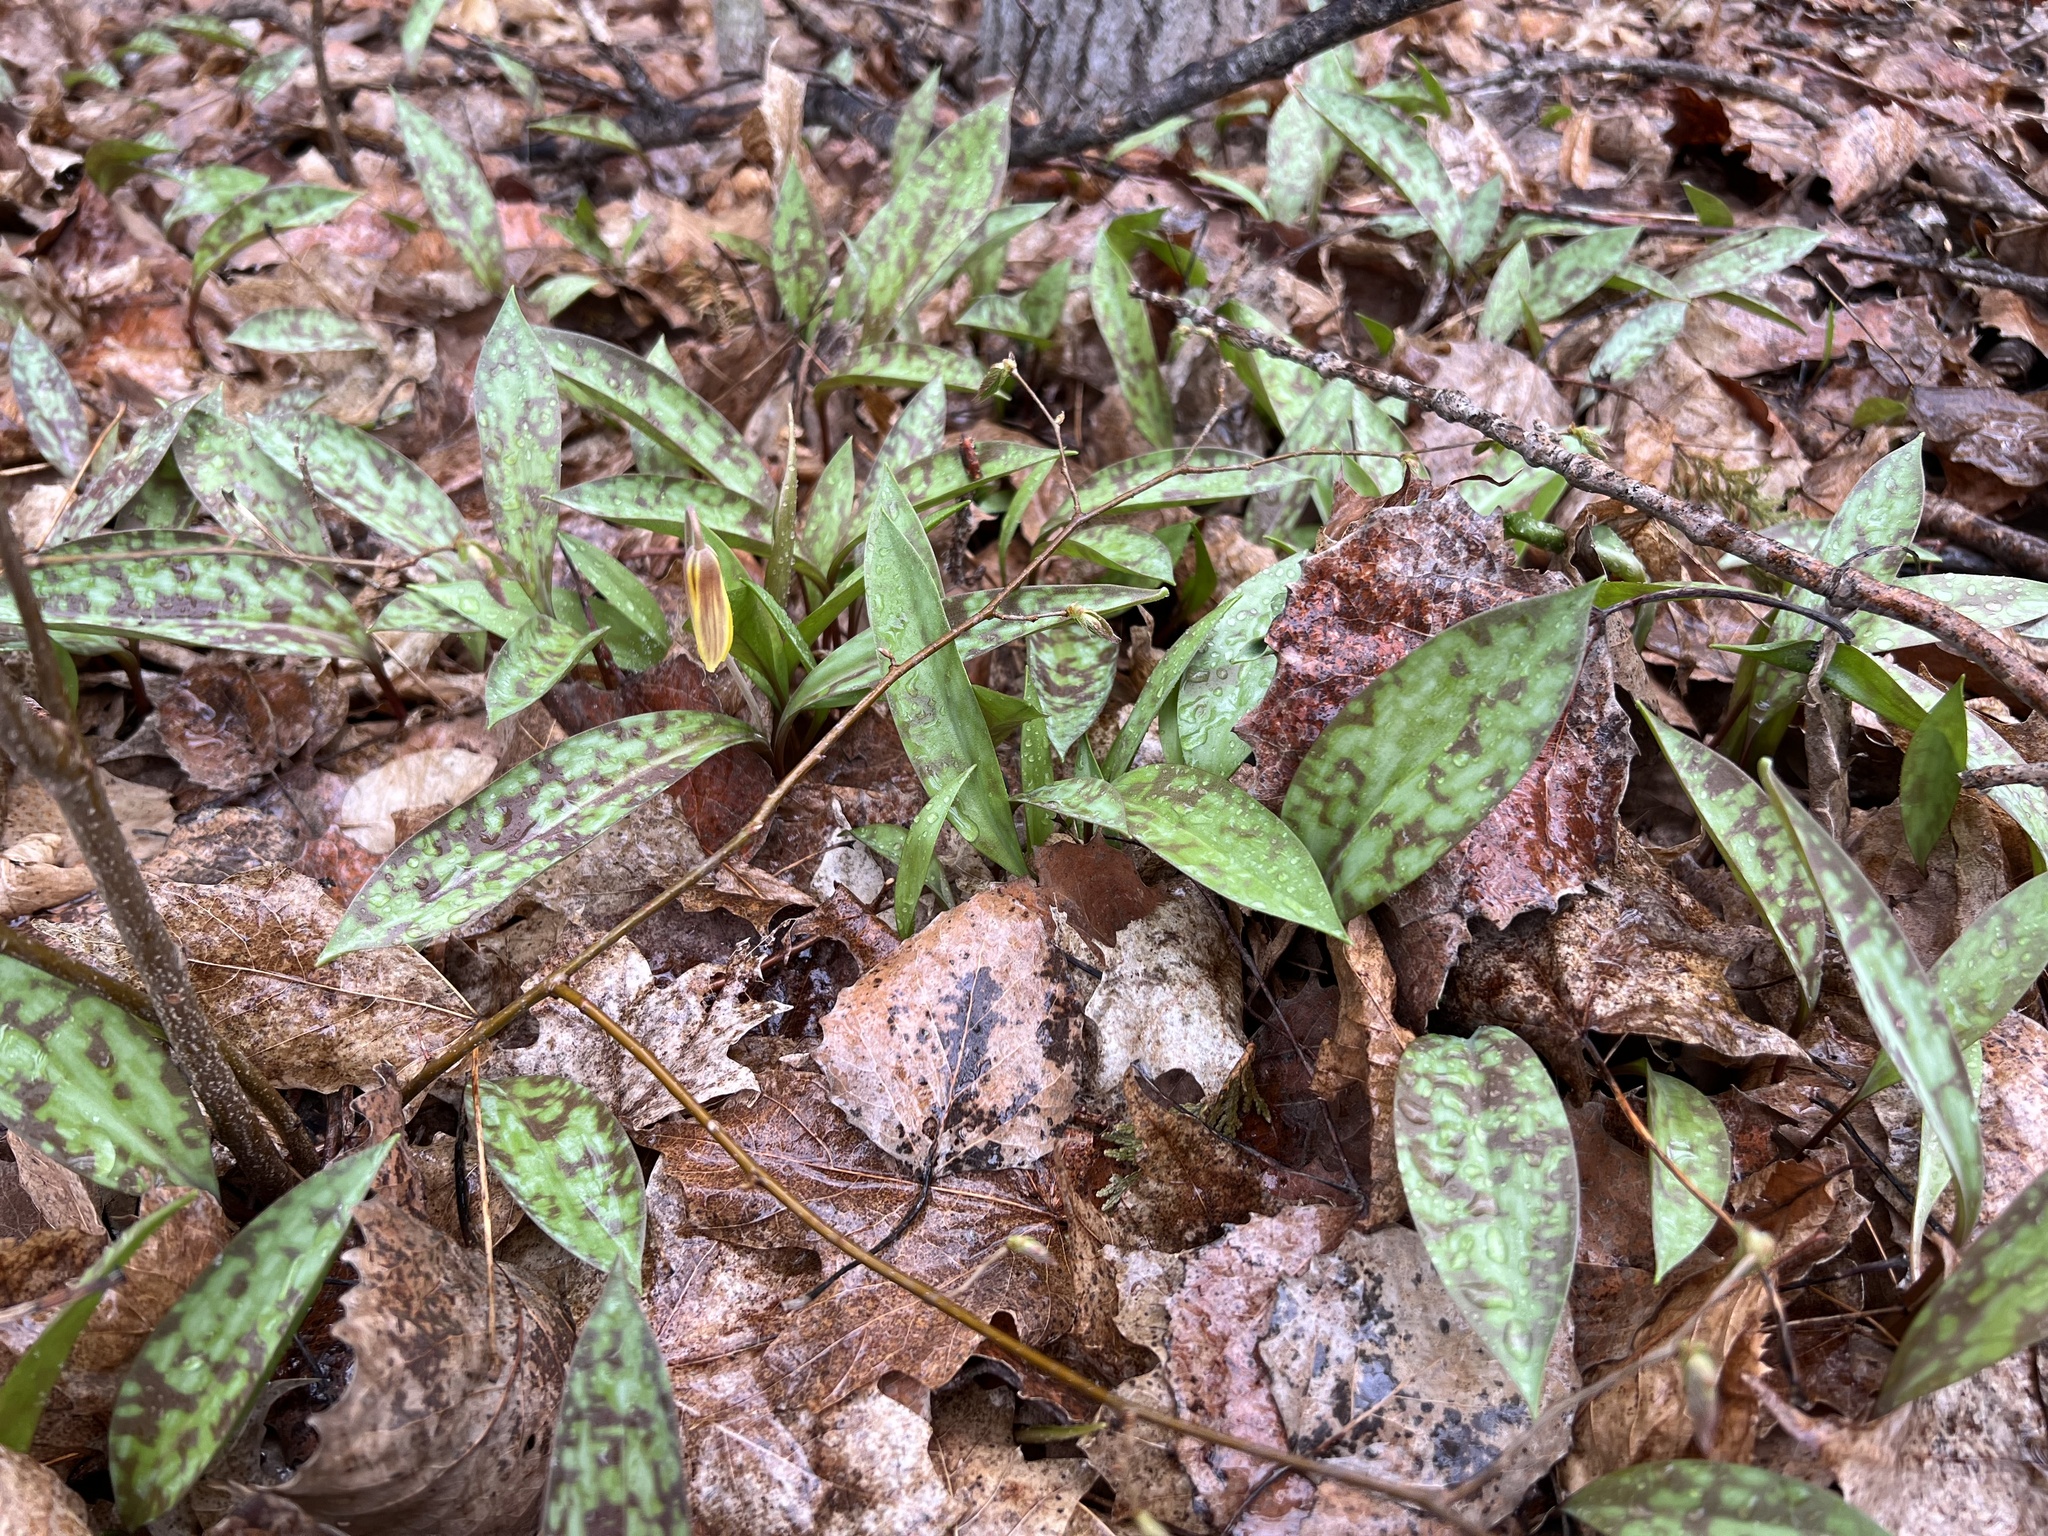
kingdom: Plantae
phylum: Tracheophyta
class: Liliopsida
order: Liliales
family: Liliaceae
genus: Erythronium
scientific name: Erythronium americanum
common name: Yellow adder's-tongue
